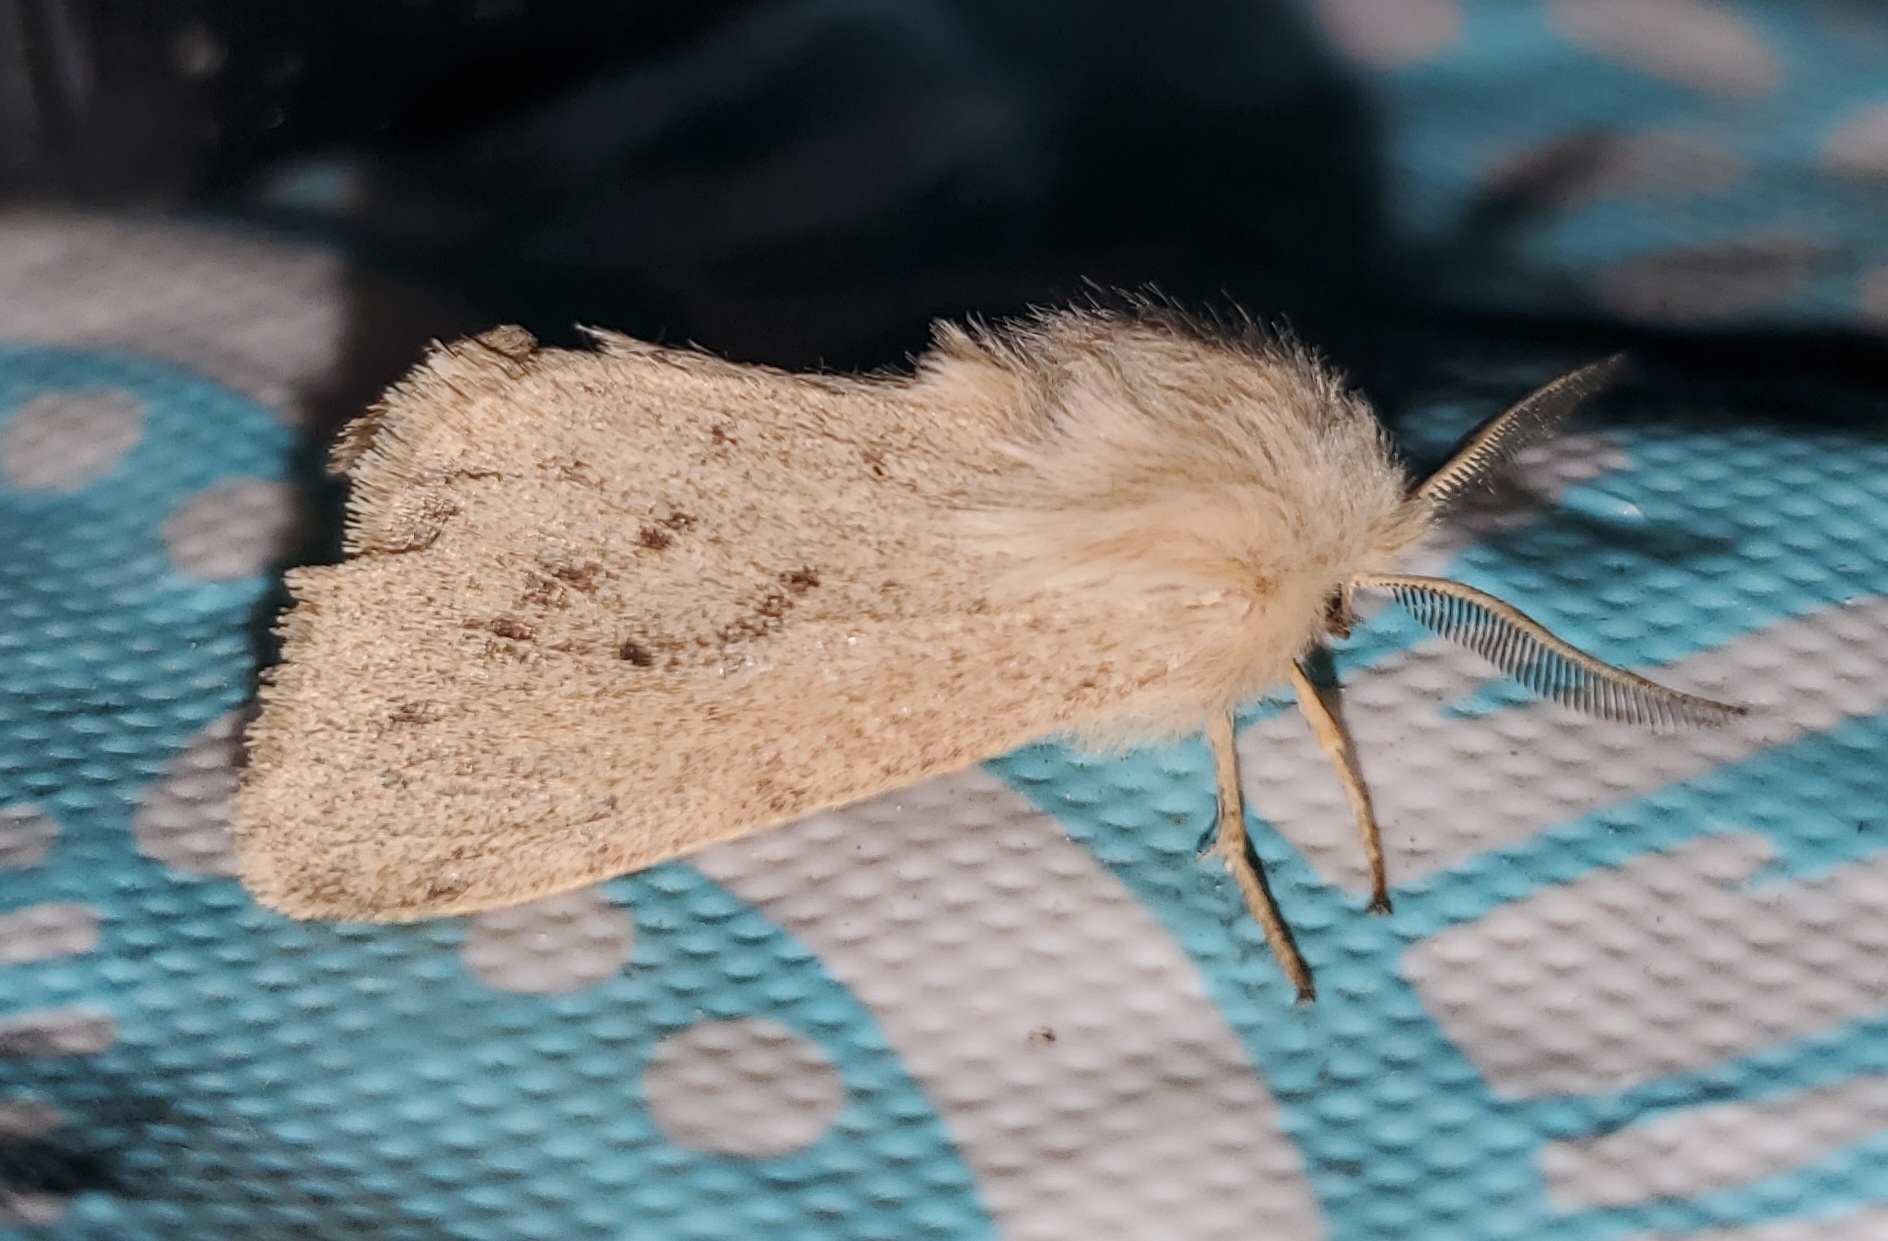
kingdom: Animalia
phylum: Arthropoda
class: Insecta
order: Lepidoptera
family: Erebidae
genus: Spilosoma
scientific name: Spilosoma vagans
